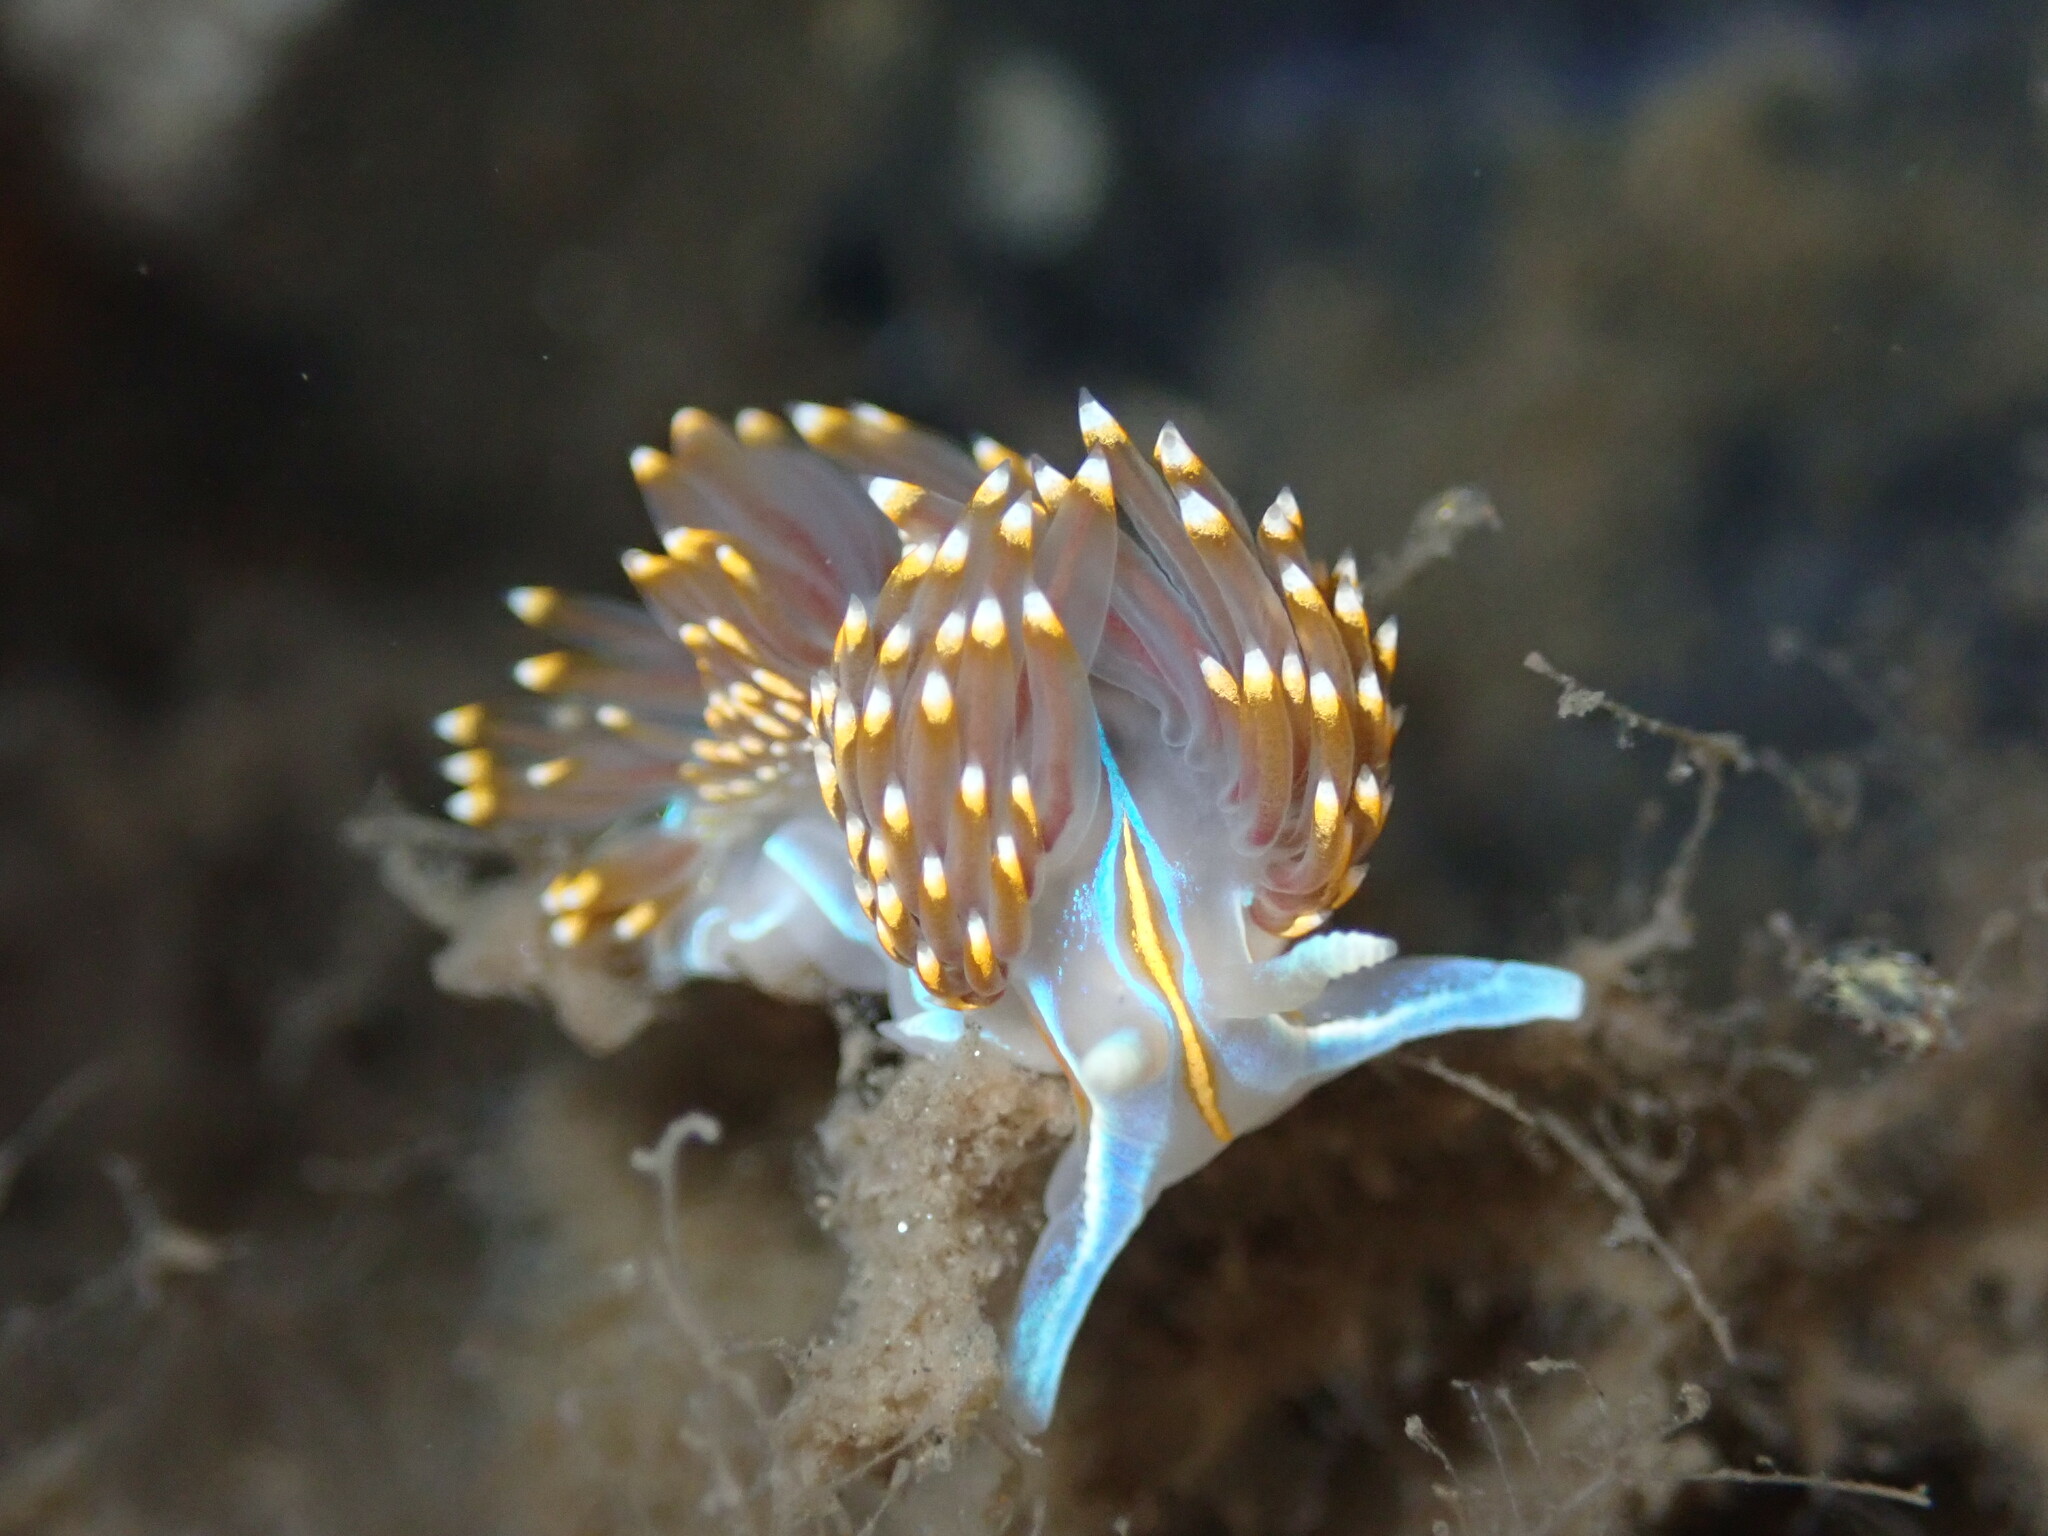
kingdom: Animalia
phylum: Mollusca
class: Gastropoda
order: Nudibranchia
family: Myrrhinidae
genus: Hermissenda
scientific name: Hermissenda opalescens
